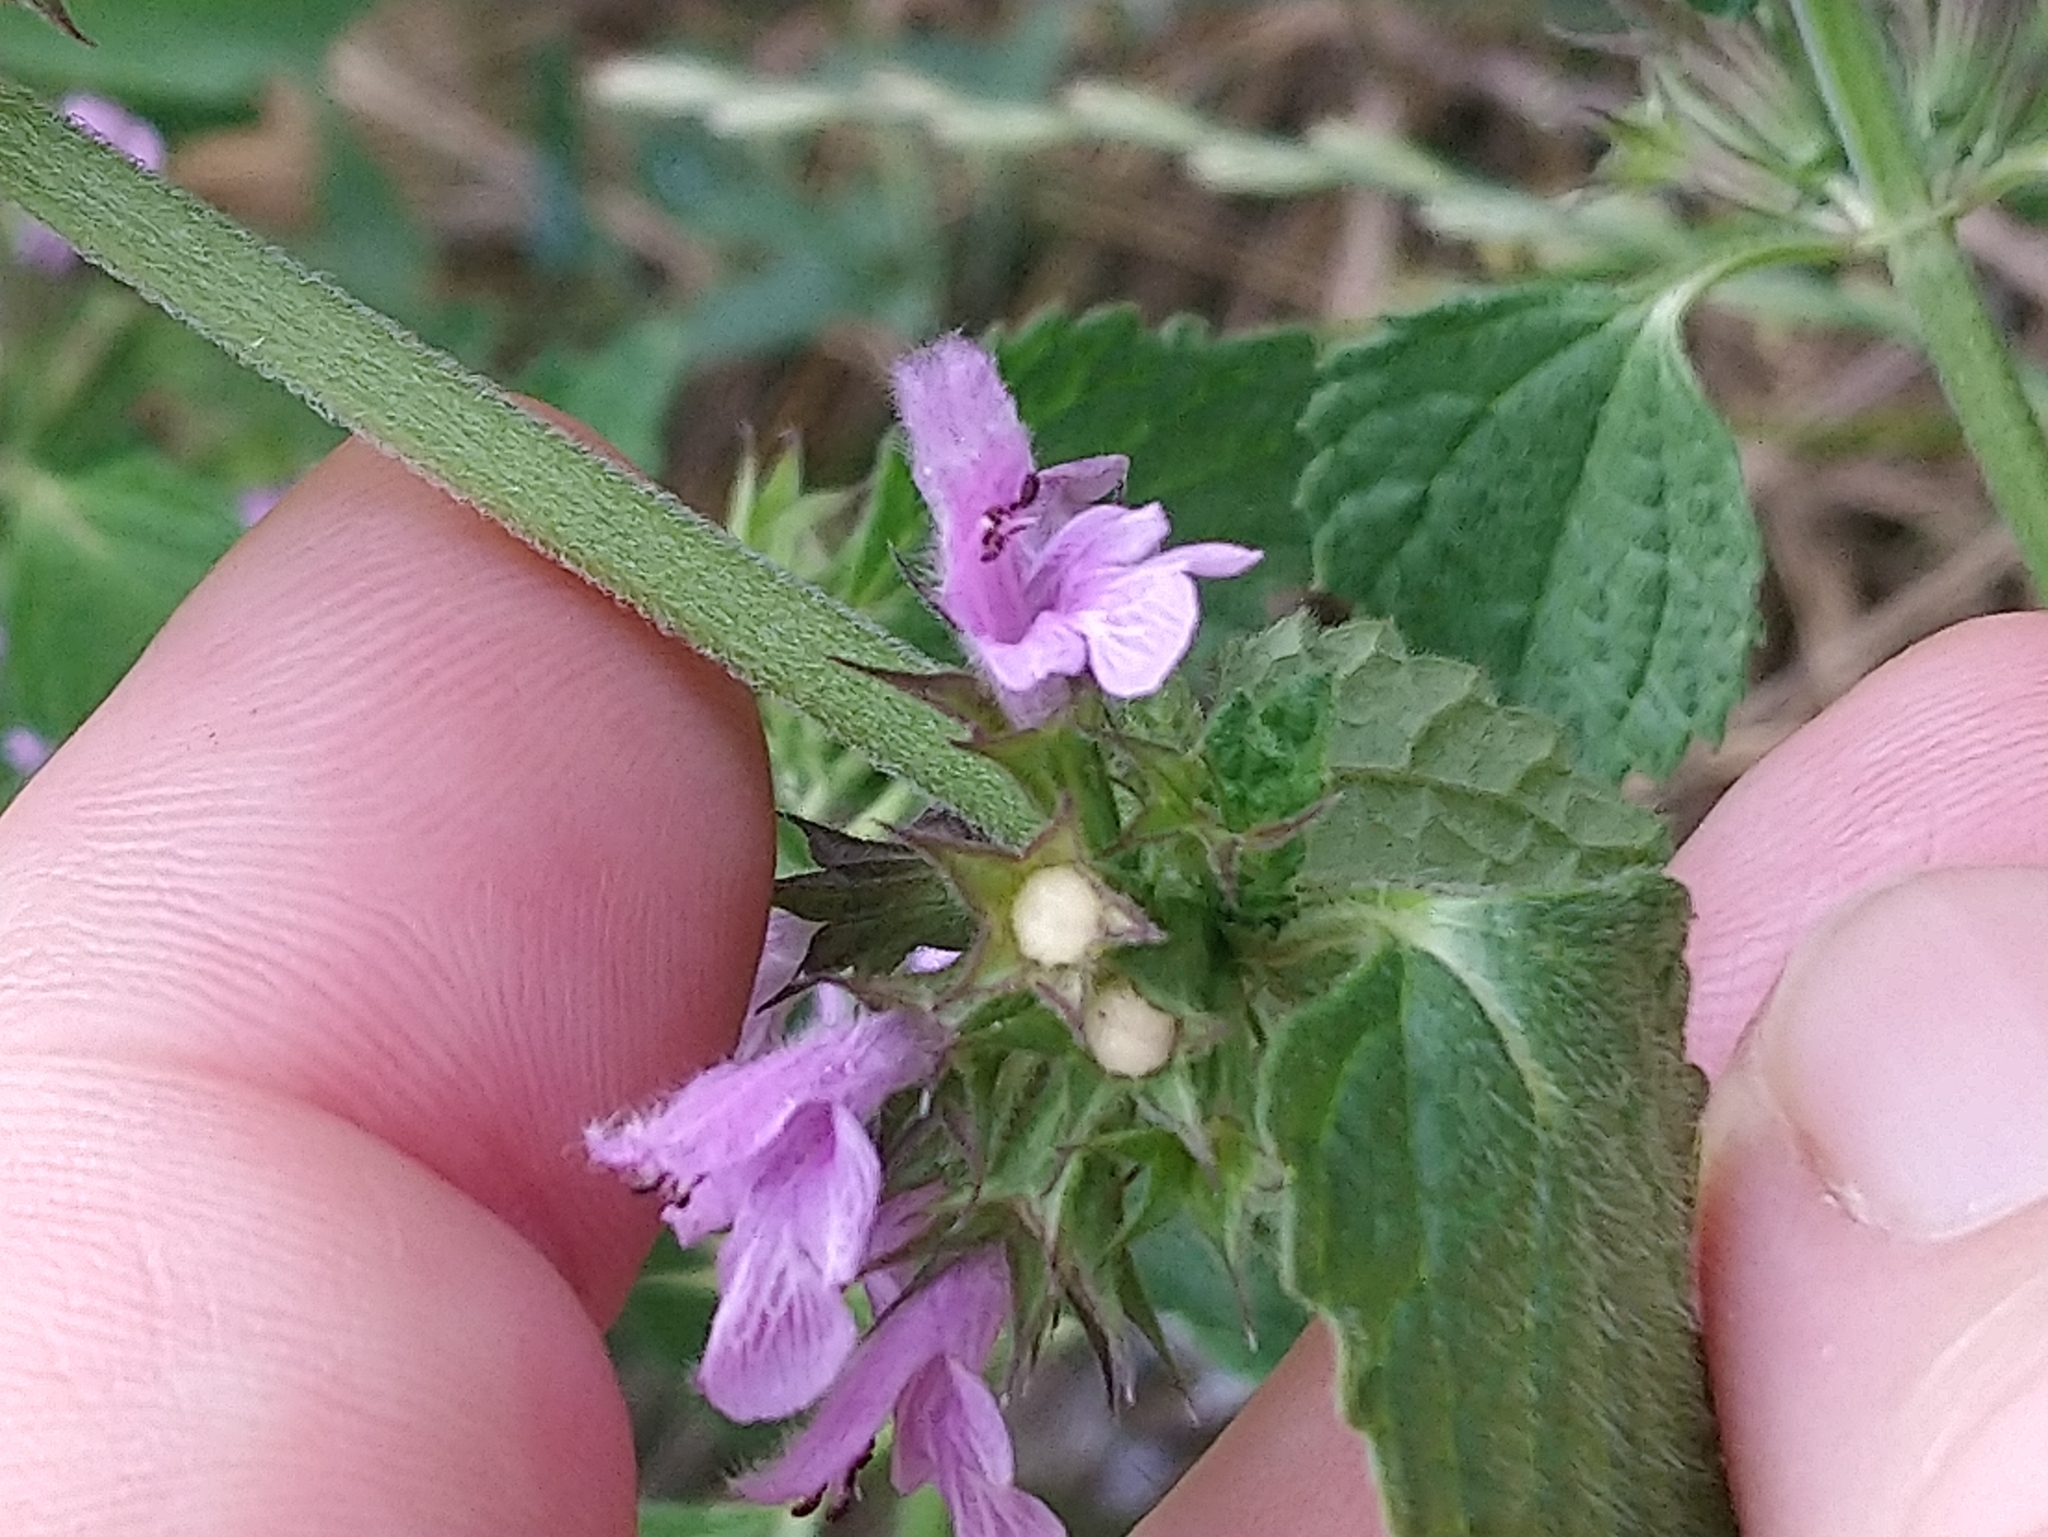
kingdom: Plantae
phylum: Tracheophyta
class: Magnoliopsida
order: Lamiales
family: Lamiaceae
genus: Ballota
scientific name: Ballota nigra
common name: Black horehound
